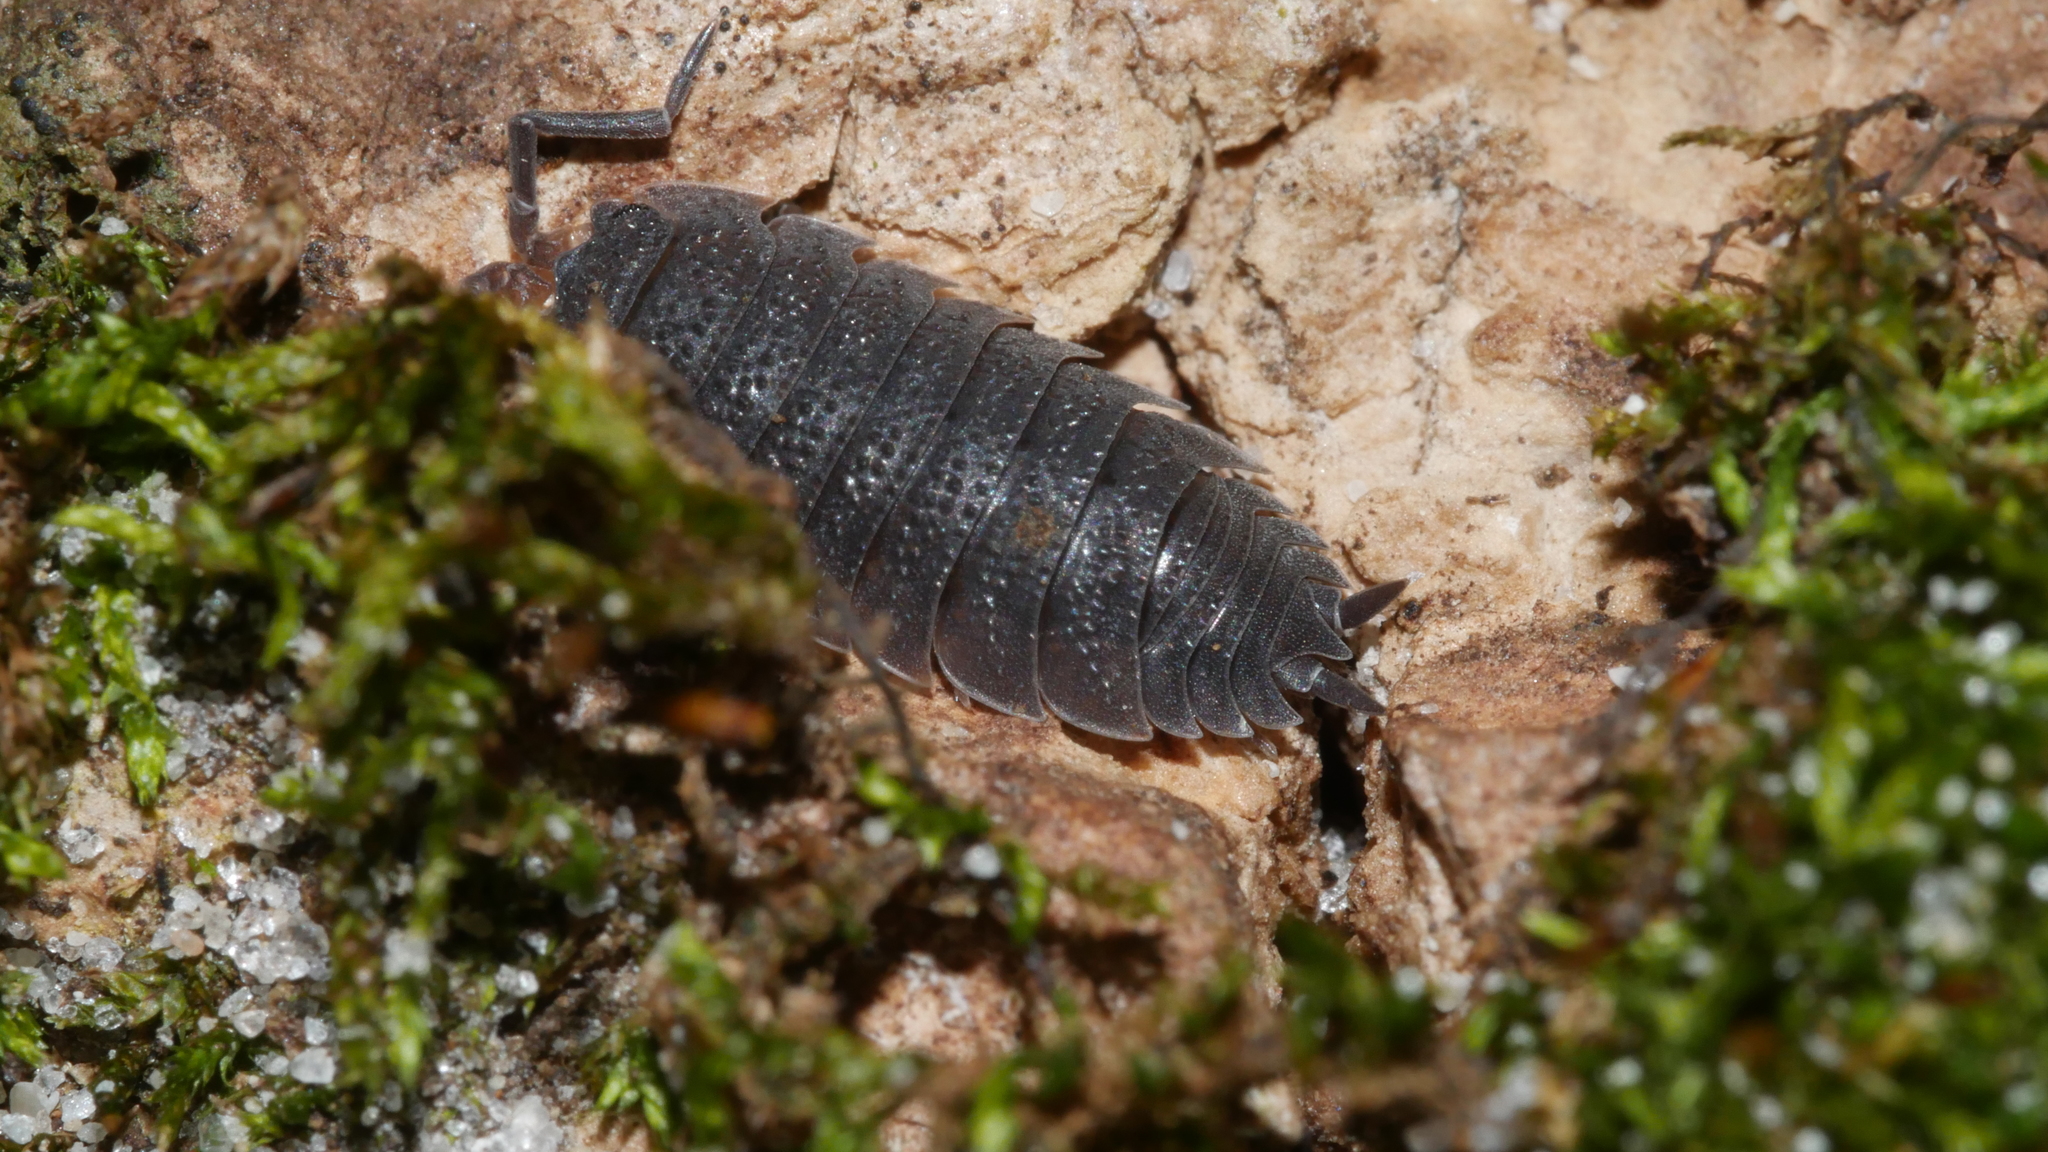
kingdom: Animalia
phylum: Arthropoda
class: Malacostraca
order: Isopoda
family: Porcellionidae
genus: Porcellio
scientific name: Porcellio scaber
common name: Common rough woodlouse
